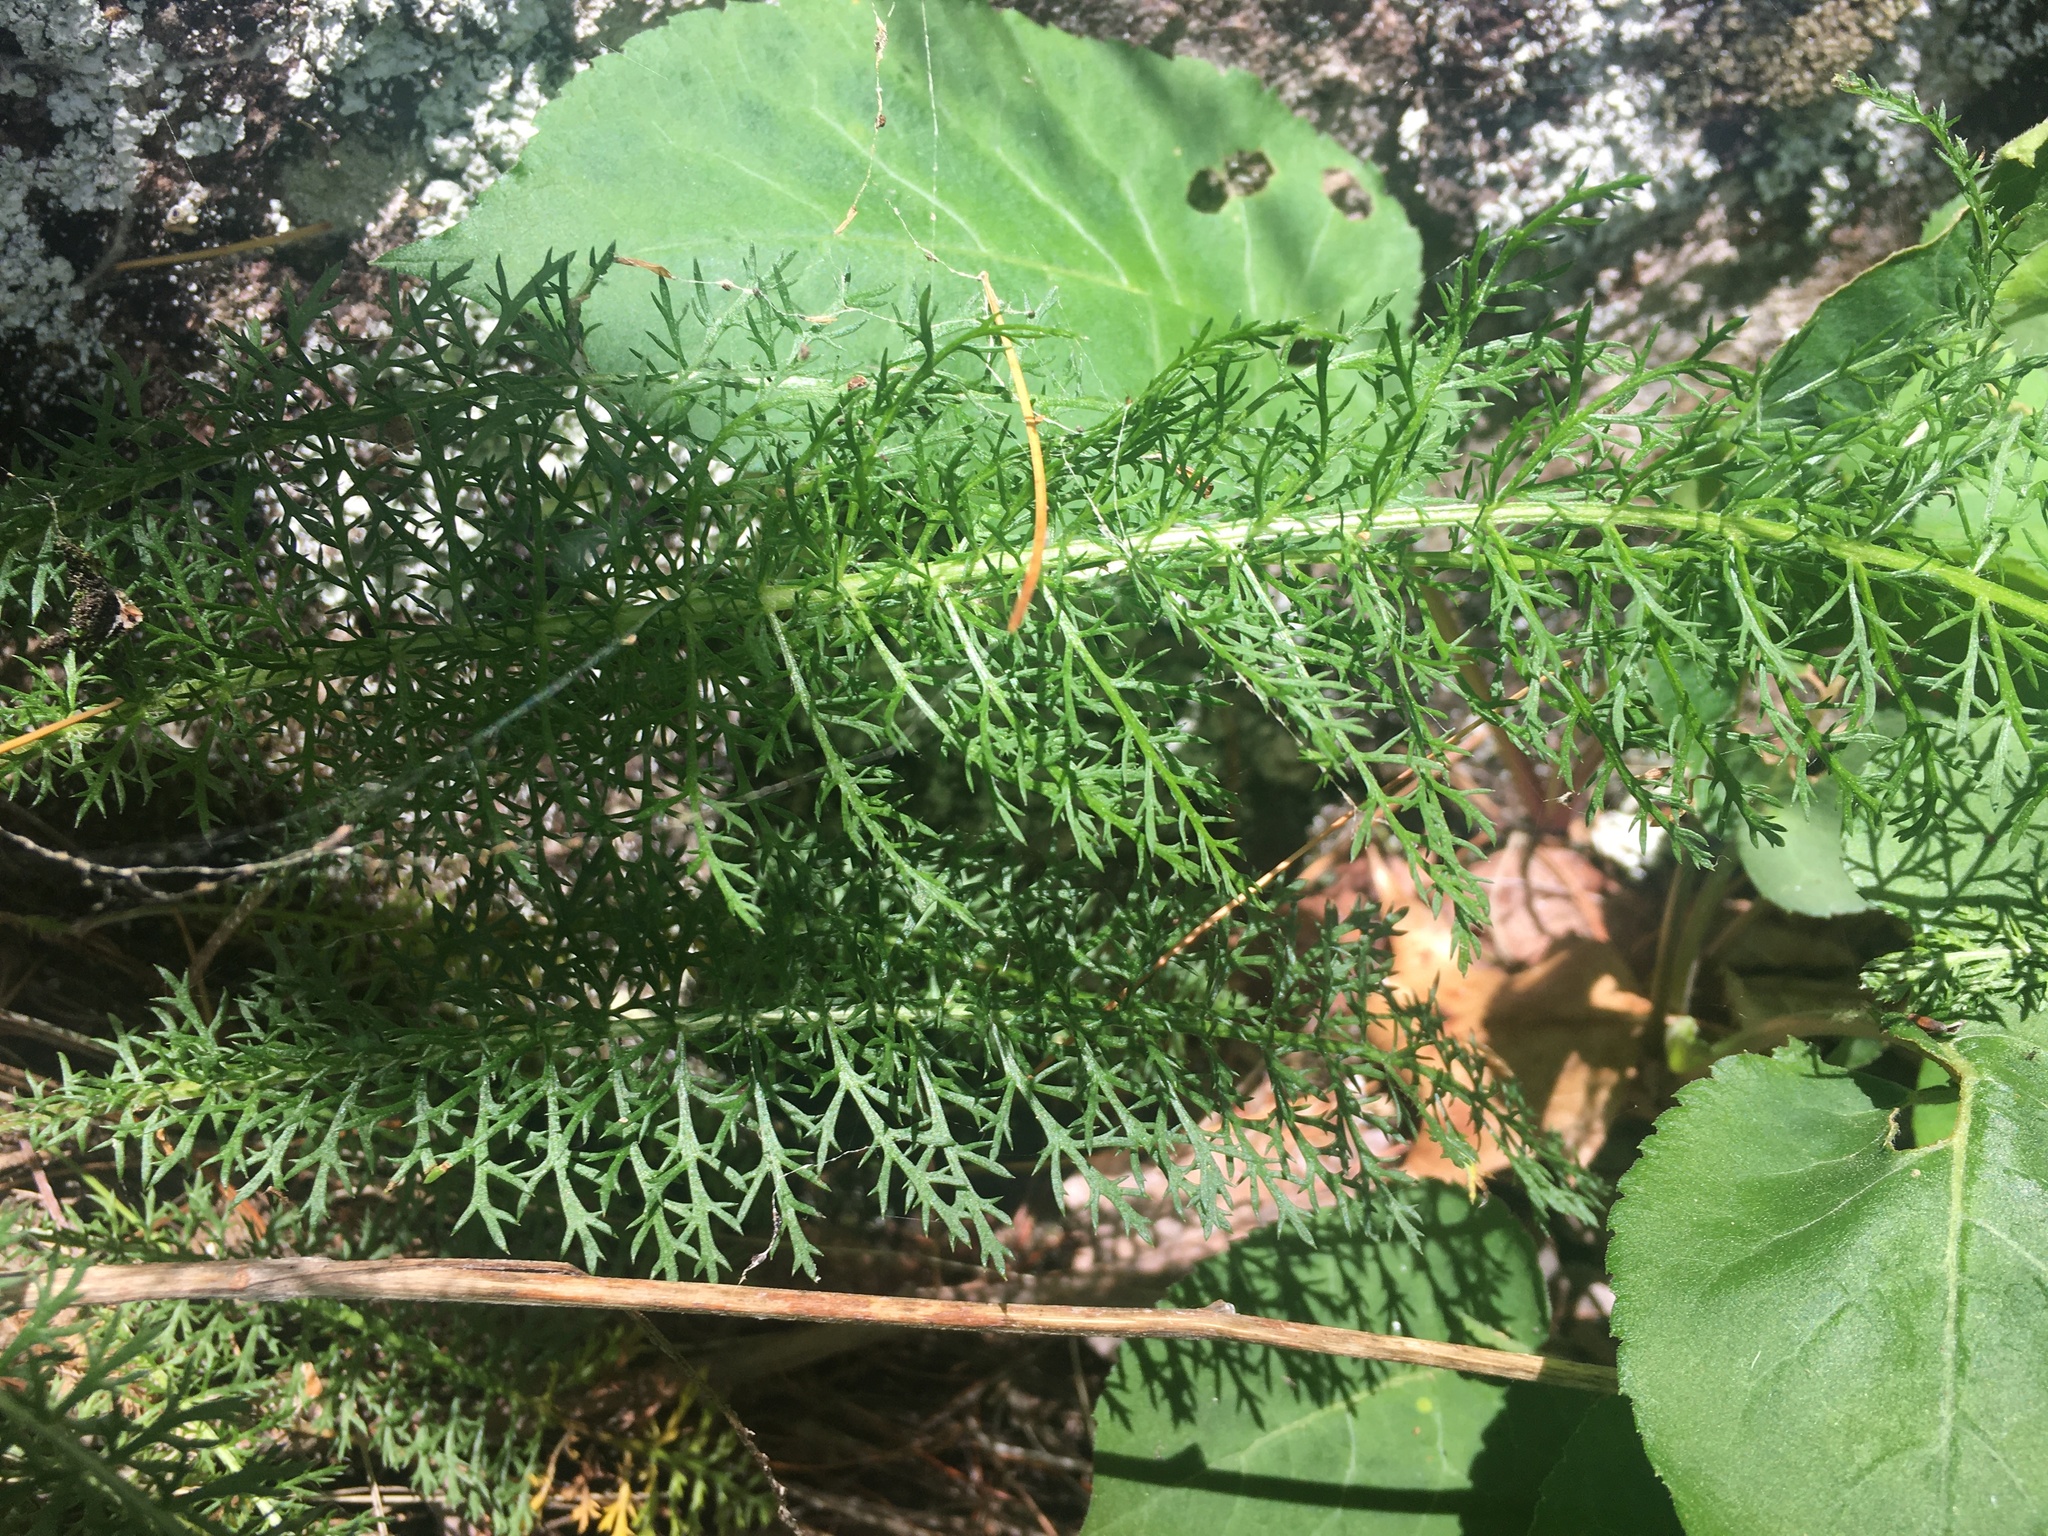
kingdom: Plantae
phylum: Tracheophyta
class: Magnoliopsida
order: Asterales
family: Asteraceae
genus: Achillea
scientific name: Achillea millefolium
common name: Yarrow
